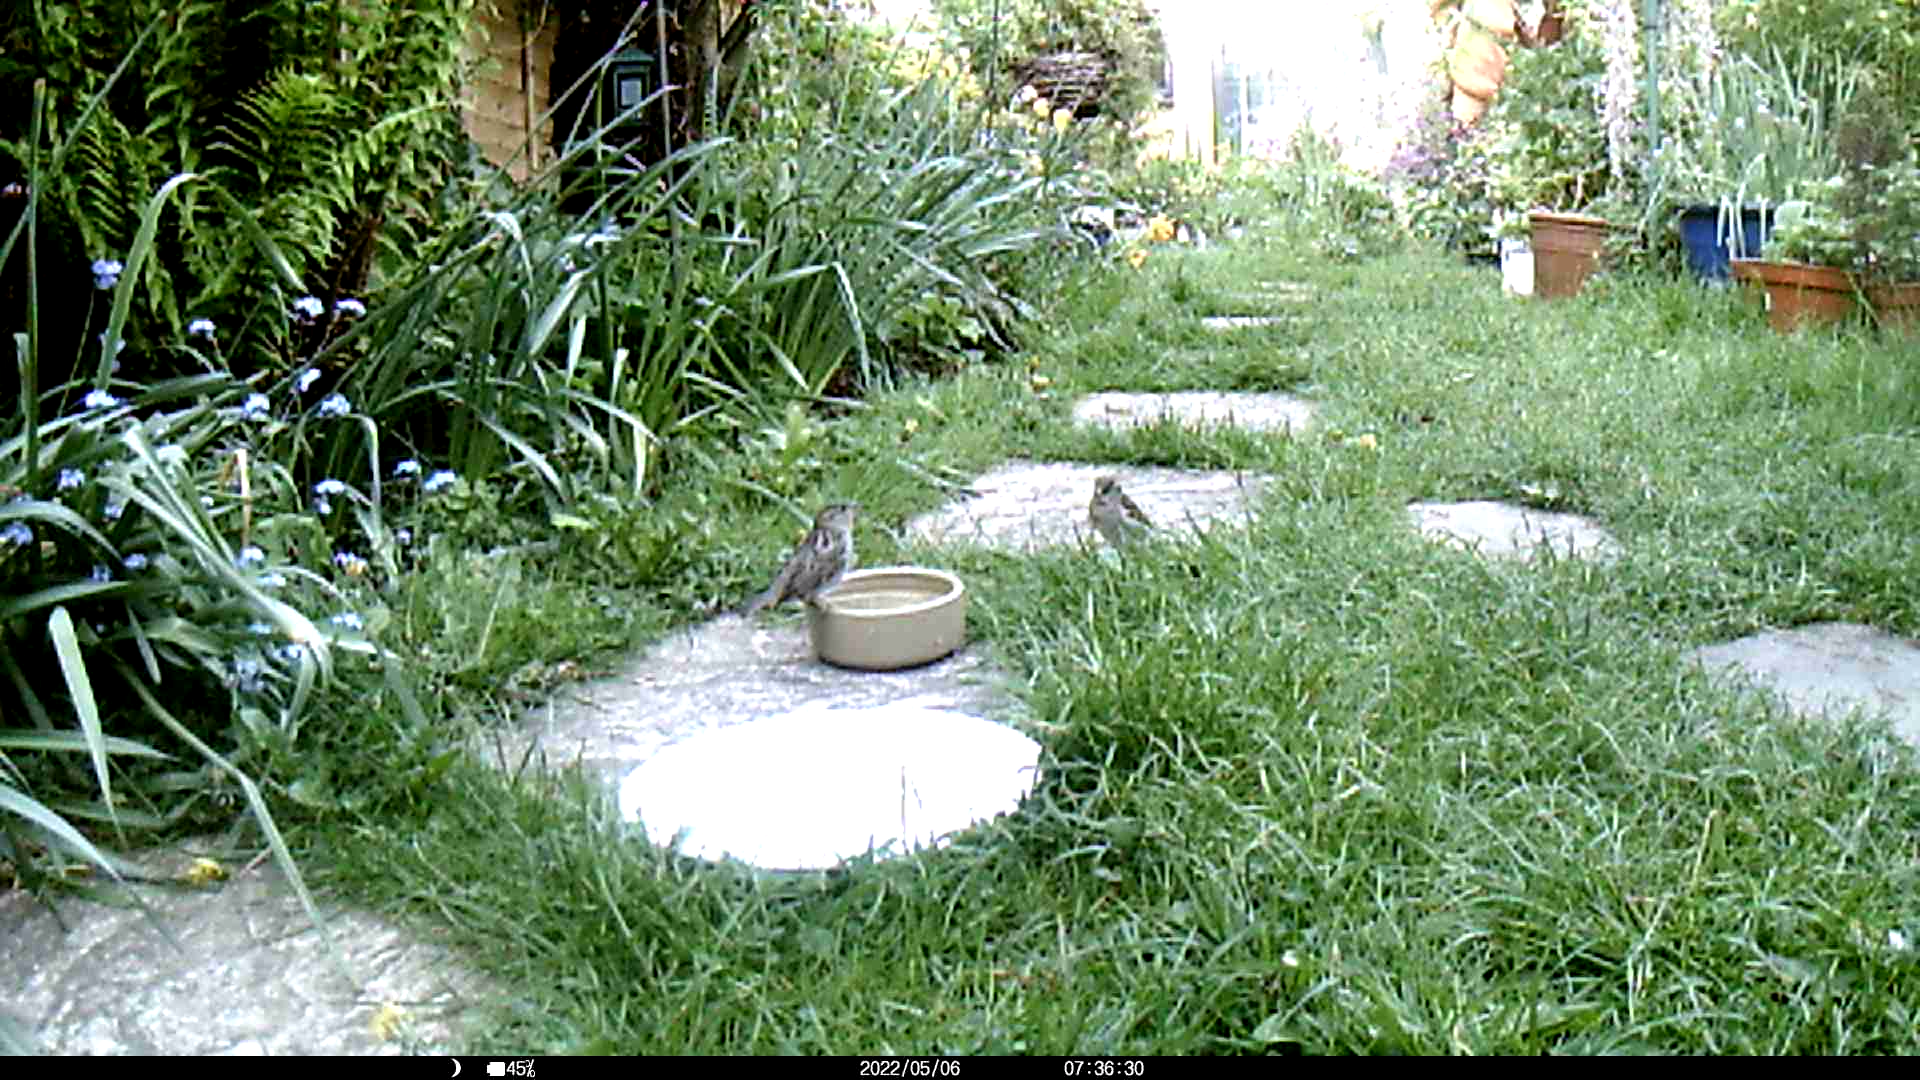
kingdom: Animalia
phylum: Chordata
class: Aves
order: Passeriformes
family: Passeridae
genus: Passer
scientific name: Passer domesticus
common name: House sparrow
